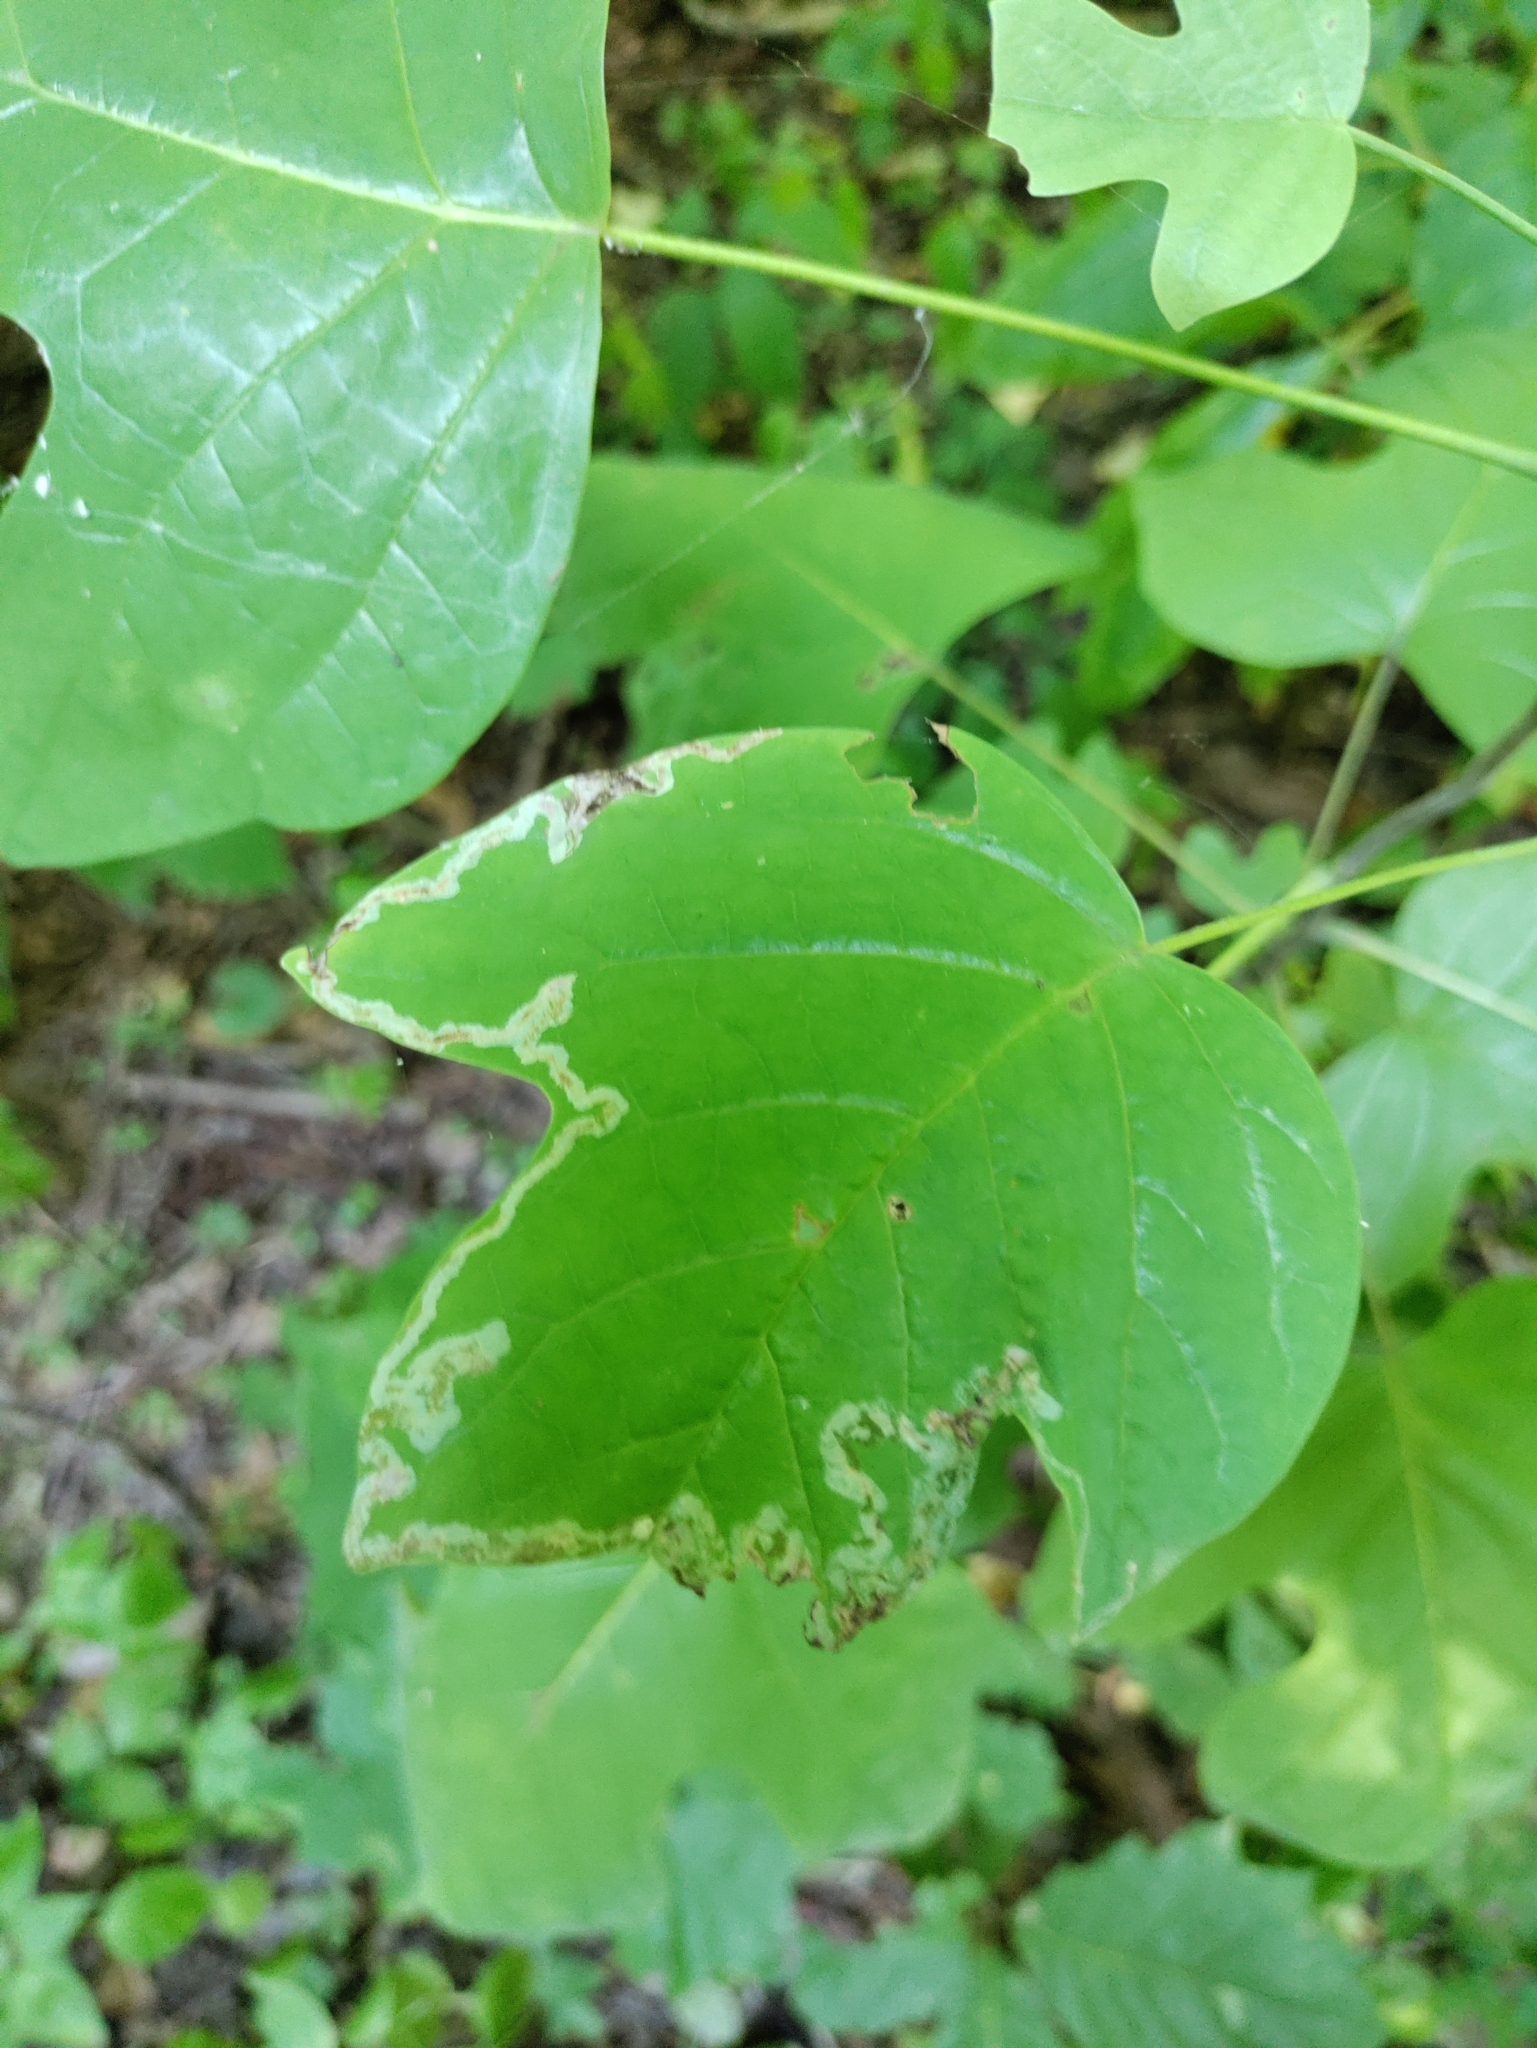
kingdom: Animalia
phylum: Arthropoda
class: Insecta
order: Lepidoptera
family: Gracillariidae
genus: Phyllocnistis
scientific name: Phyllocnistis liriodendronella
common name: Tulip tree leaf miner
